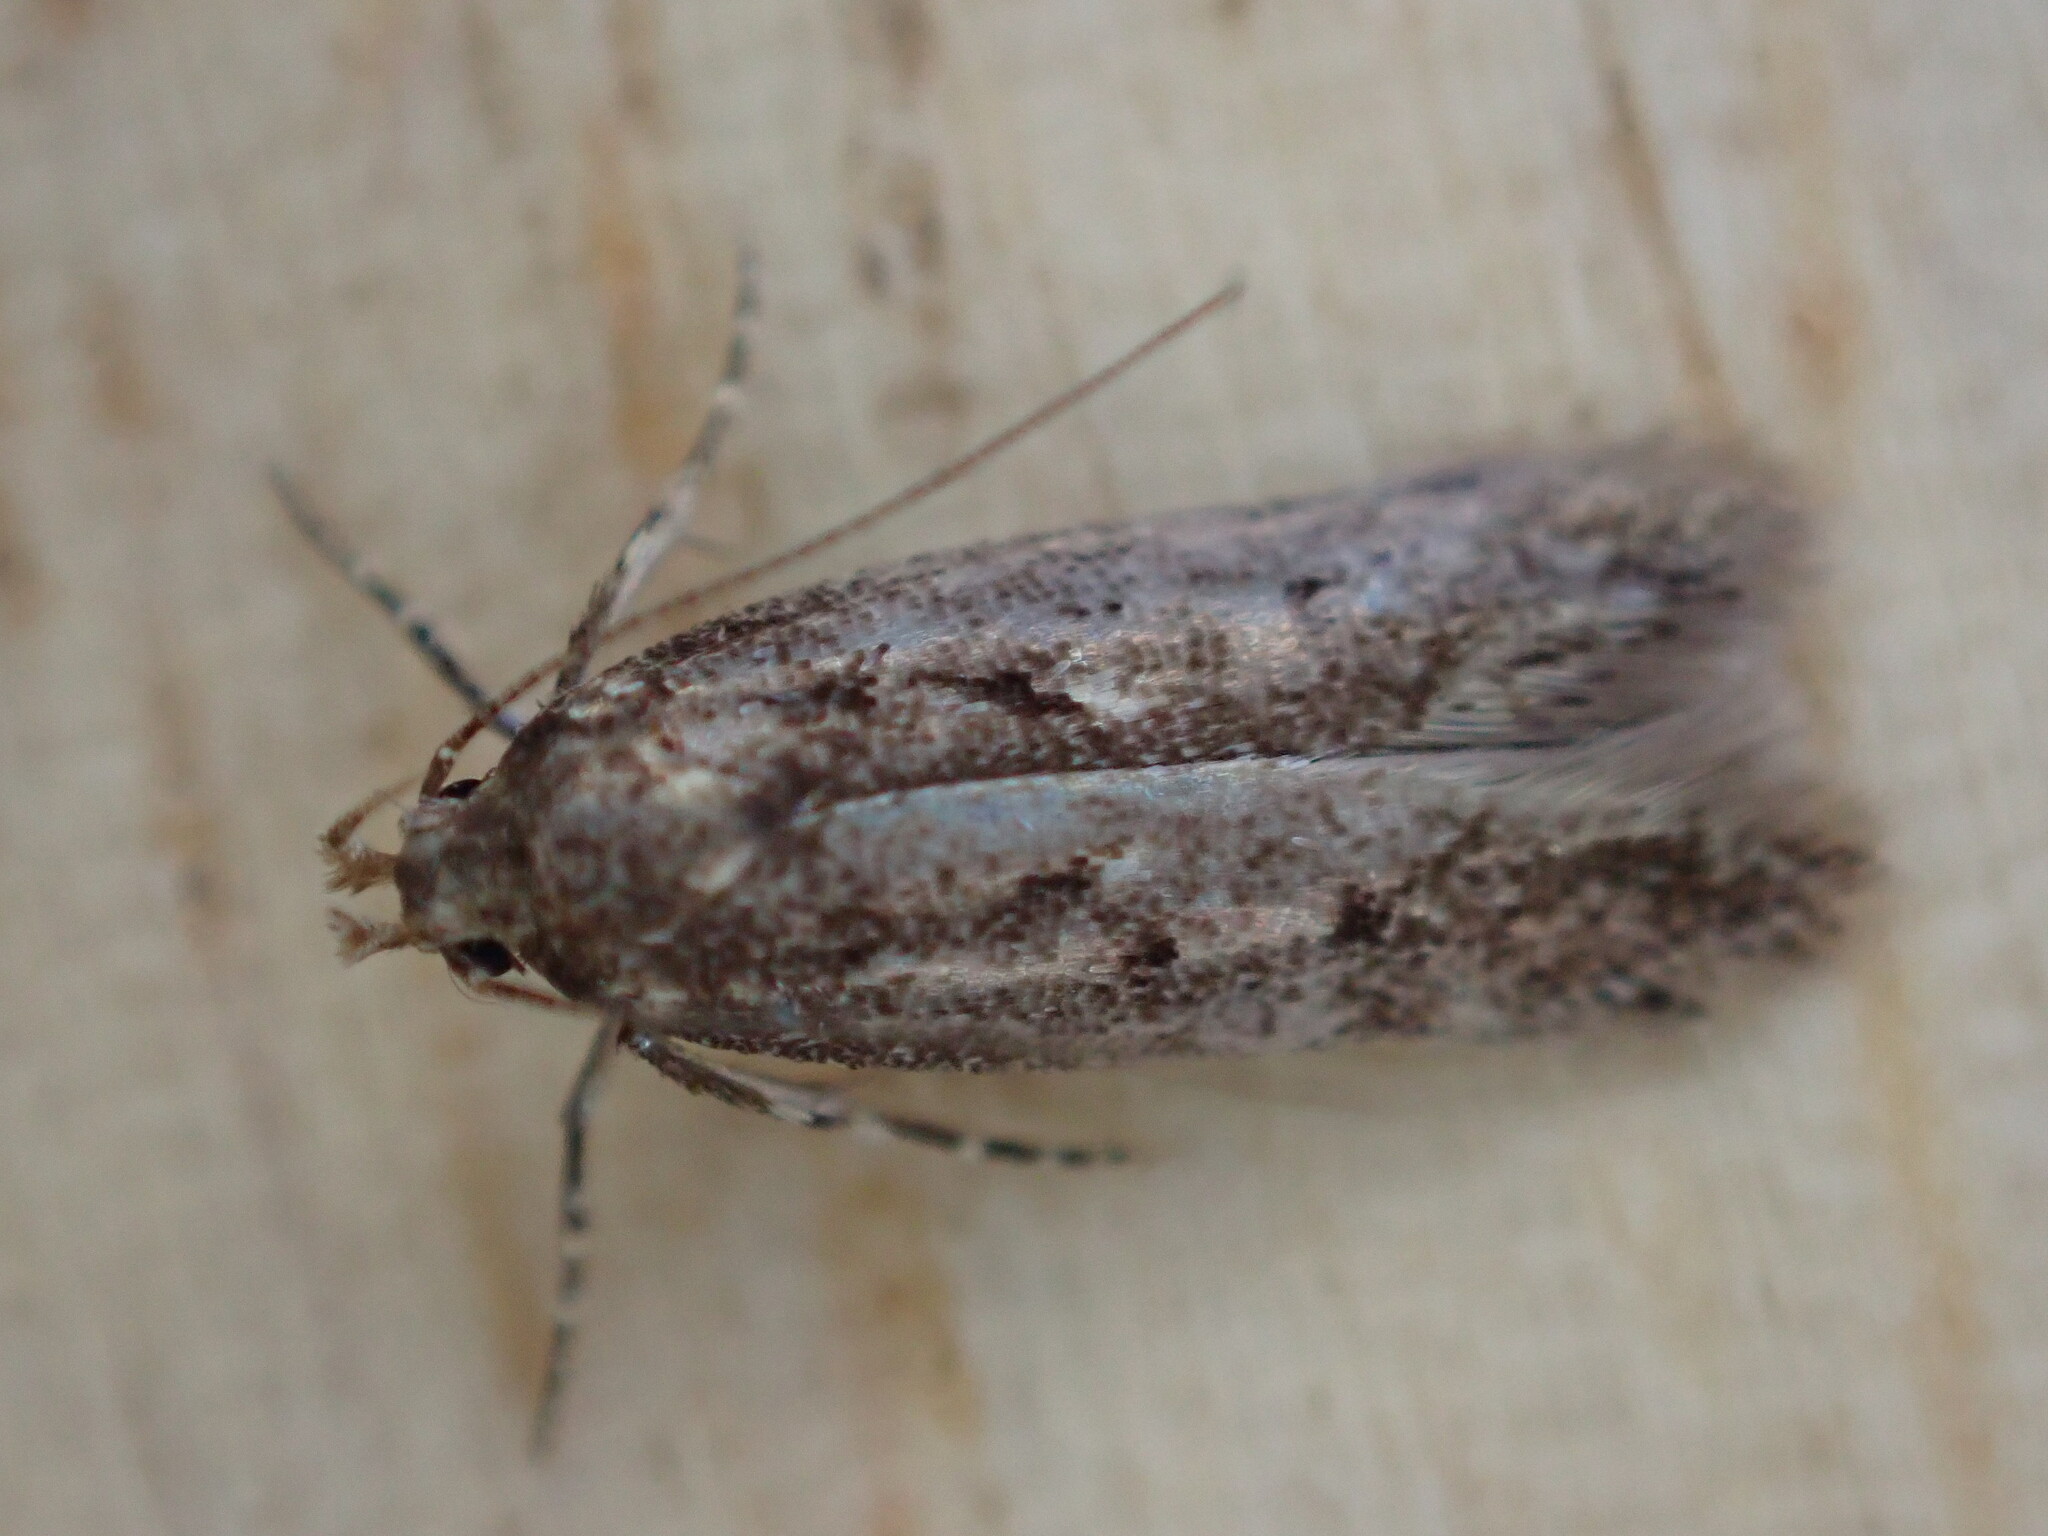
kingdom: Animalia
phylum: Arthropoda
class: Insecta
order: Lepidoptera
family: Oecophoridae
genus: Hofmannophila
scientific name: Hofmannophila pseudospretella
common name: Brown house moth
